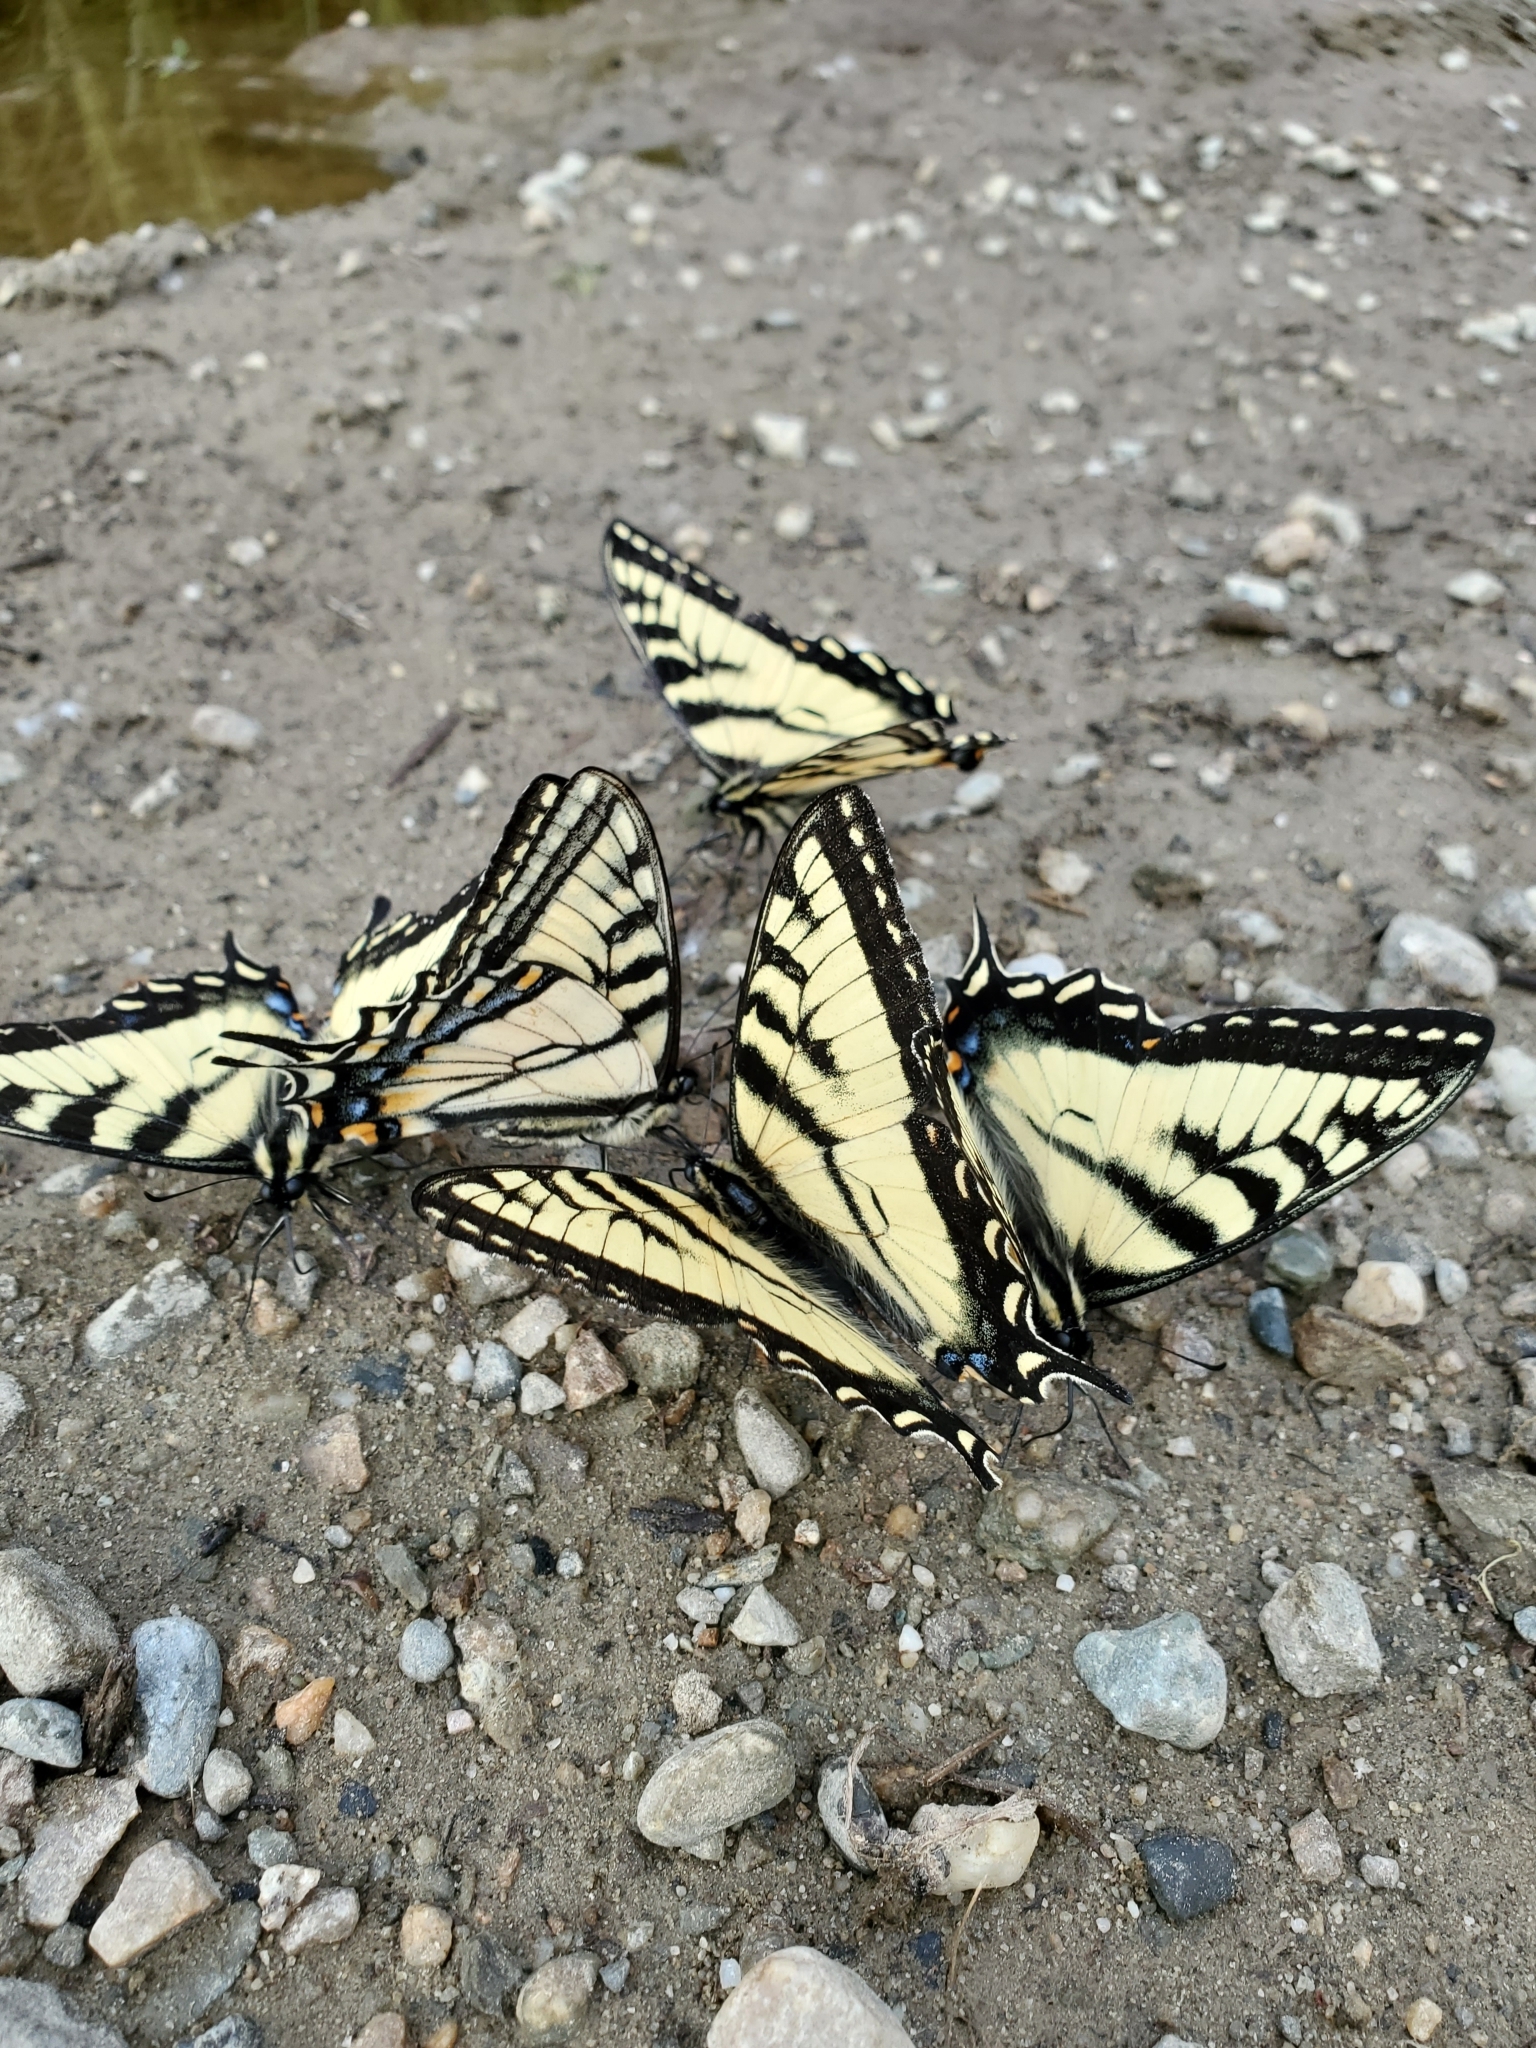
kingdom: Animalia
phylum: Arthropoda
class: Insecta
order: Lepidoptera
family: Papilionidae
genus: Papilio
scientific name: Papilio canadensis
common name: Canadian tiger swallowtail
